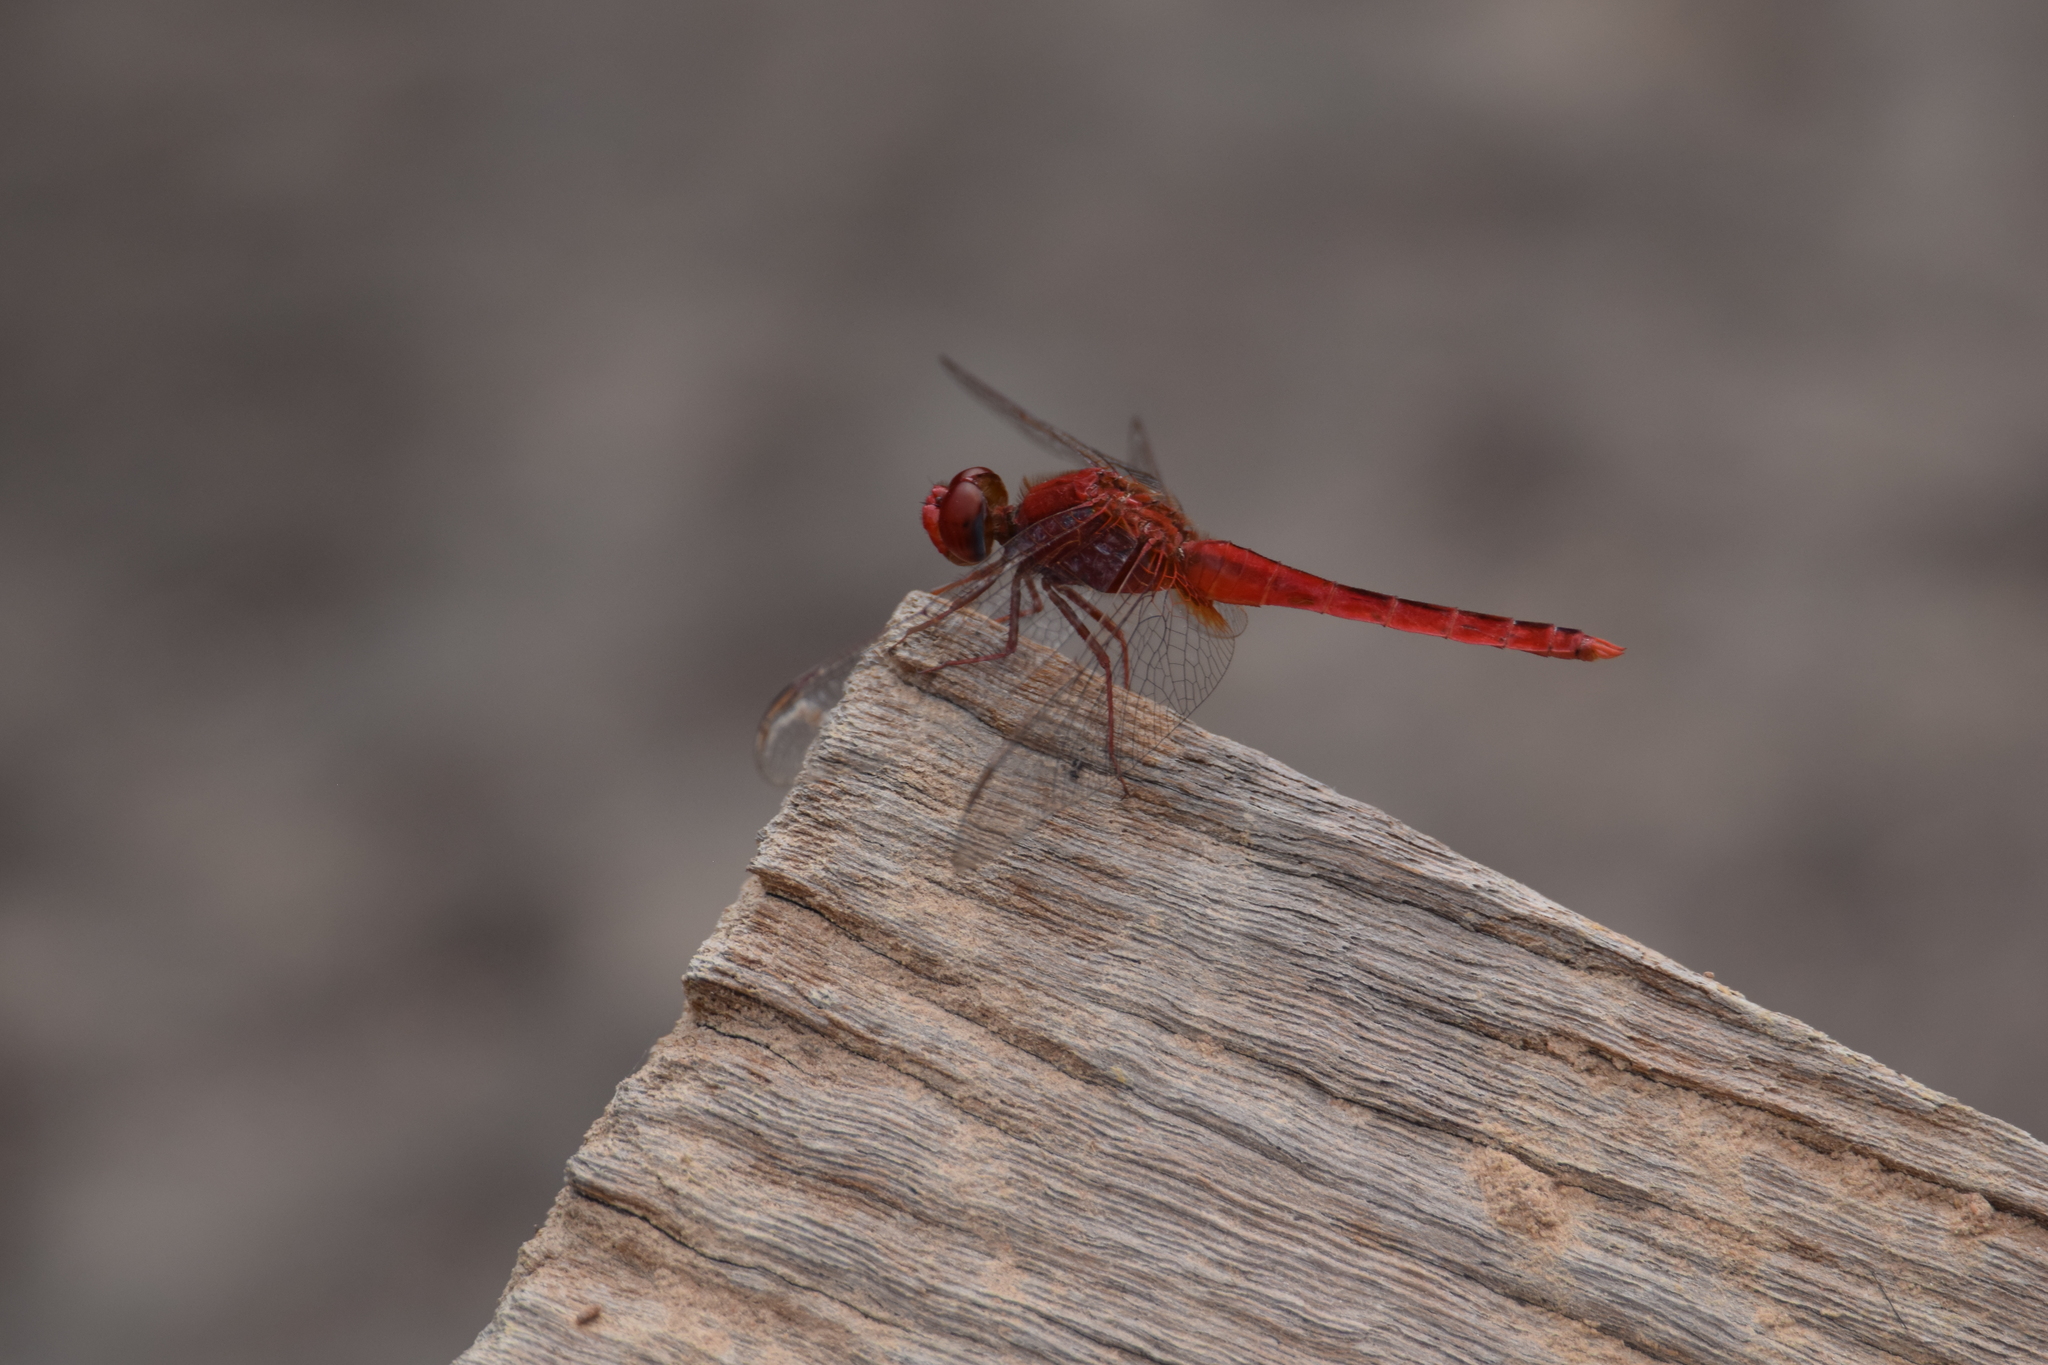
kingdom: Animalia
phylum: Arthropoda
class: Insecta
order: Odonata
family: Libellulidae
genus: Crocothemis
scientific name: Crocothemis servilia
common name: Scarlet skimmer
